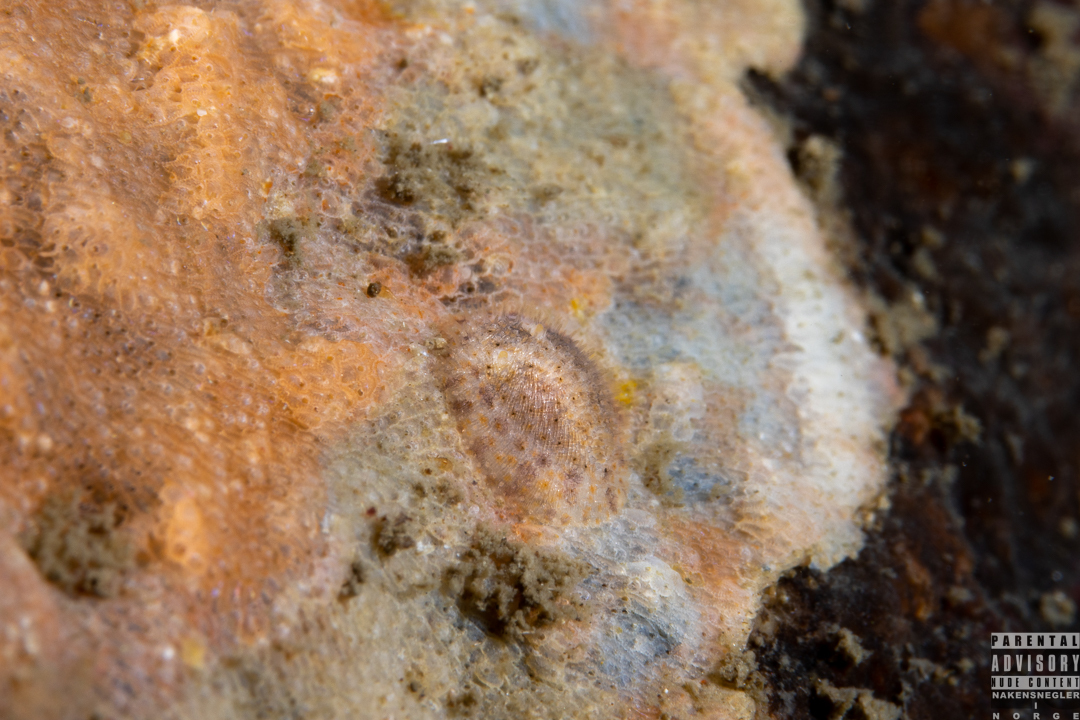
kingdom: Animalia
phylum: Mollusca
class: Gastropoda
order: Nudibranchia
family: Onchidorididae
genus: Idaliadoris
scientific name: Idaliadoris depressa
